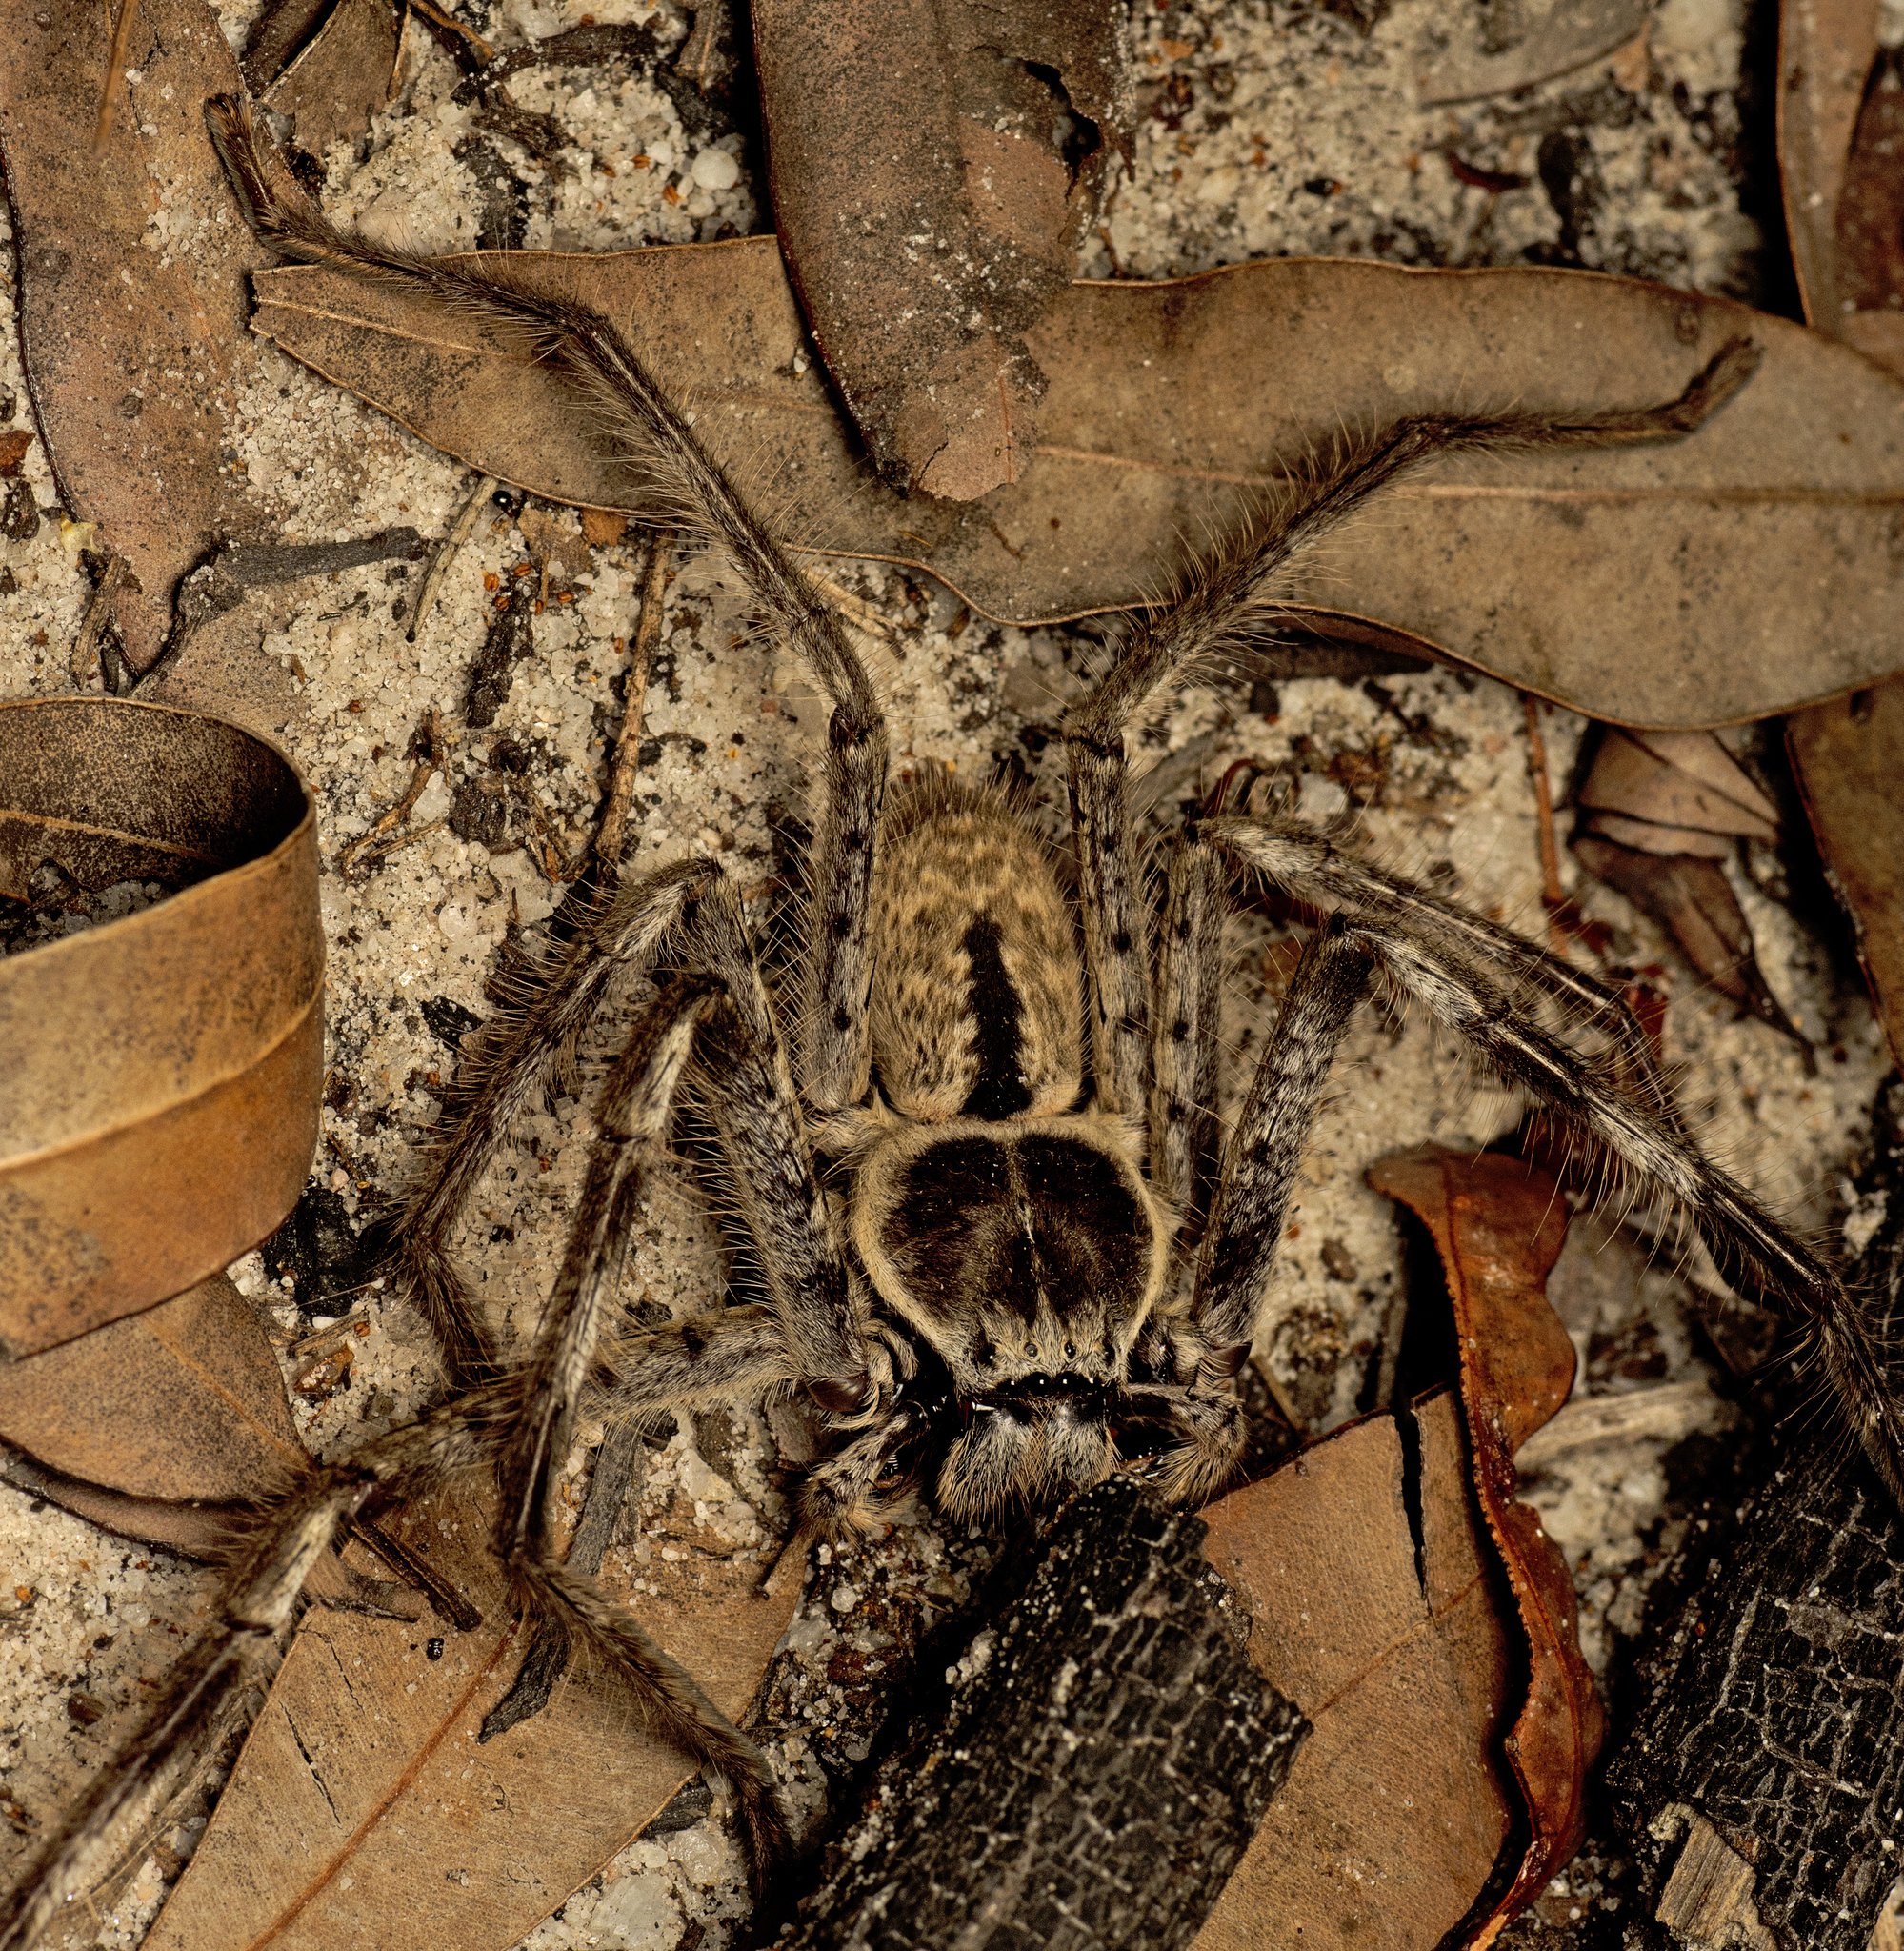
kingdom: Animalia
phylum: Arthropoda
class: Arachnida
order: Araneae
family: Sparassidae
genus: Holconia
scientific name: Holconia immanis
